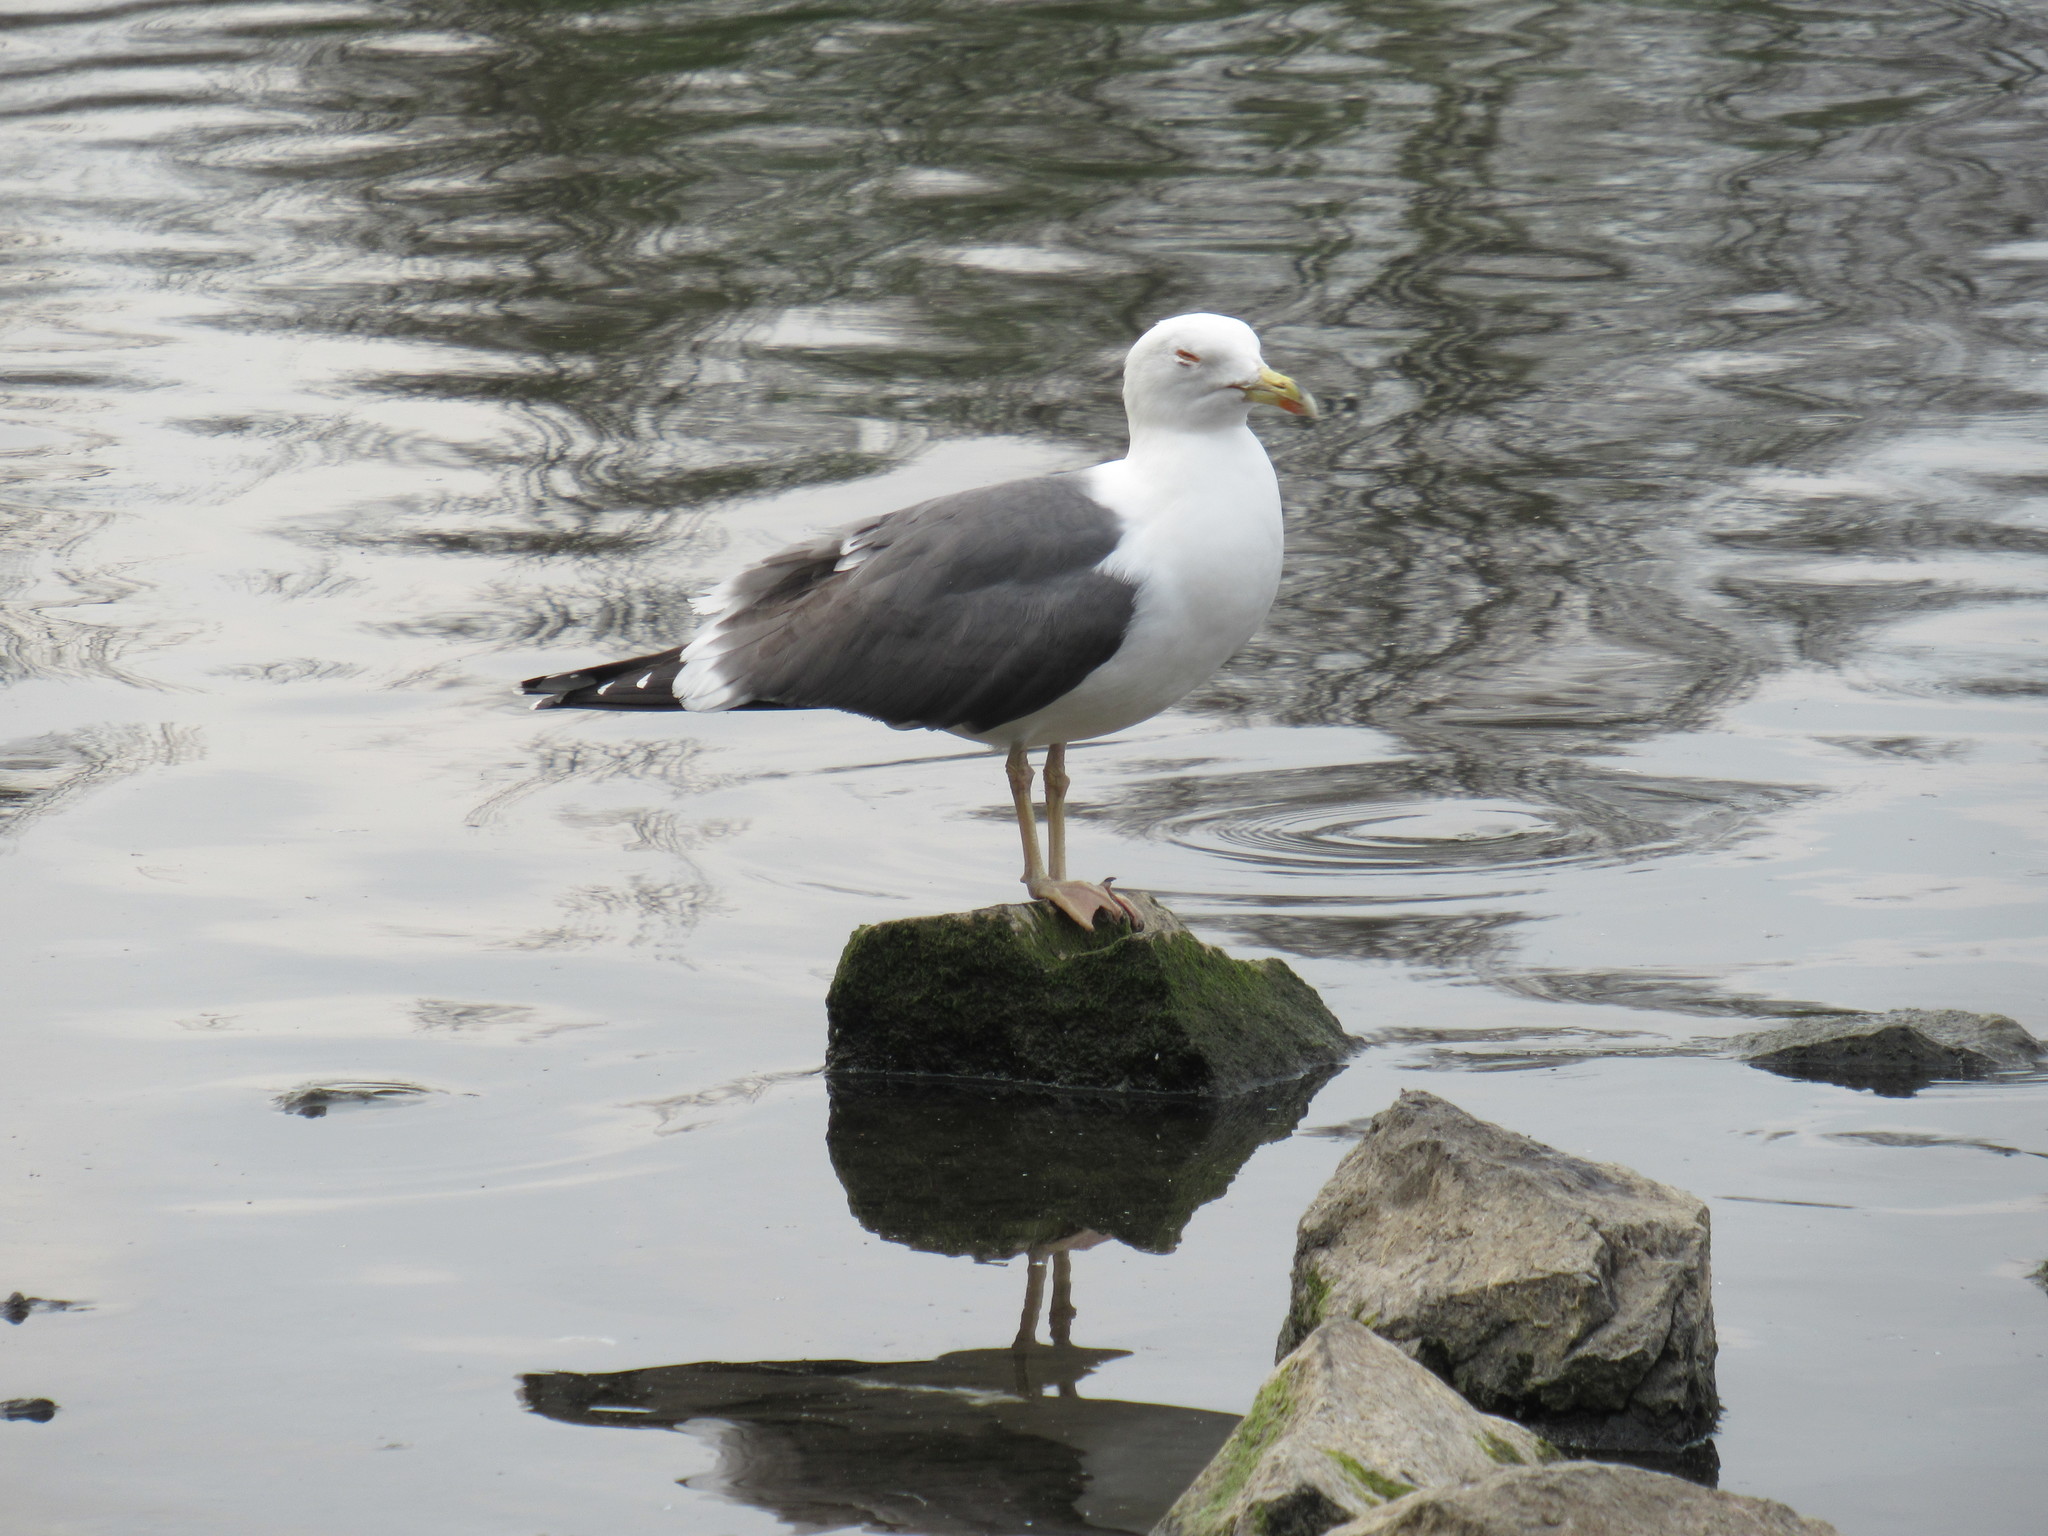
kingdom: Animalia
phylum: Chordata
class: Aves
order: Charadriiformes
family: Laridae
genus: Larus
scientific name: Larus fuscus
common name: Lesser black-backed gull
